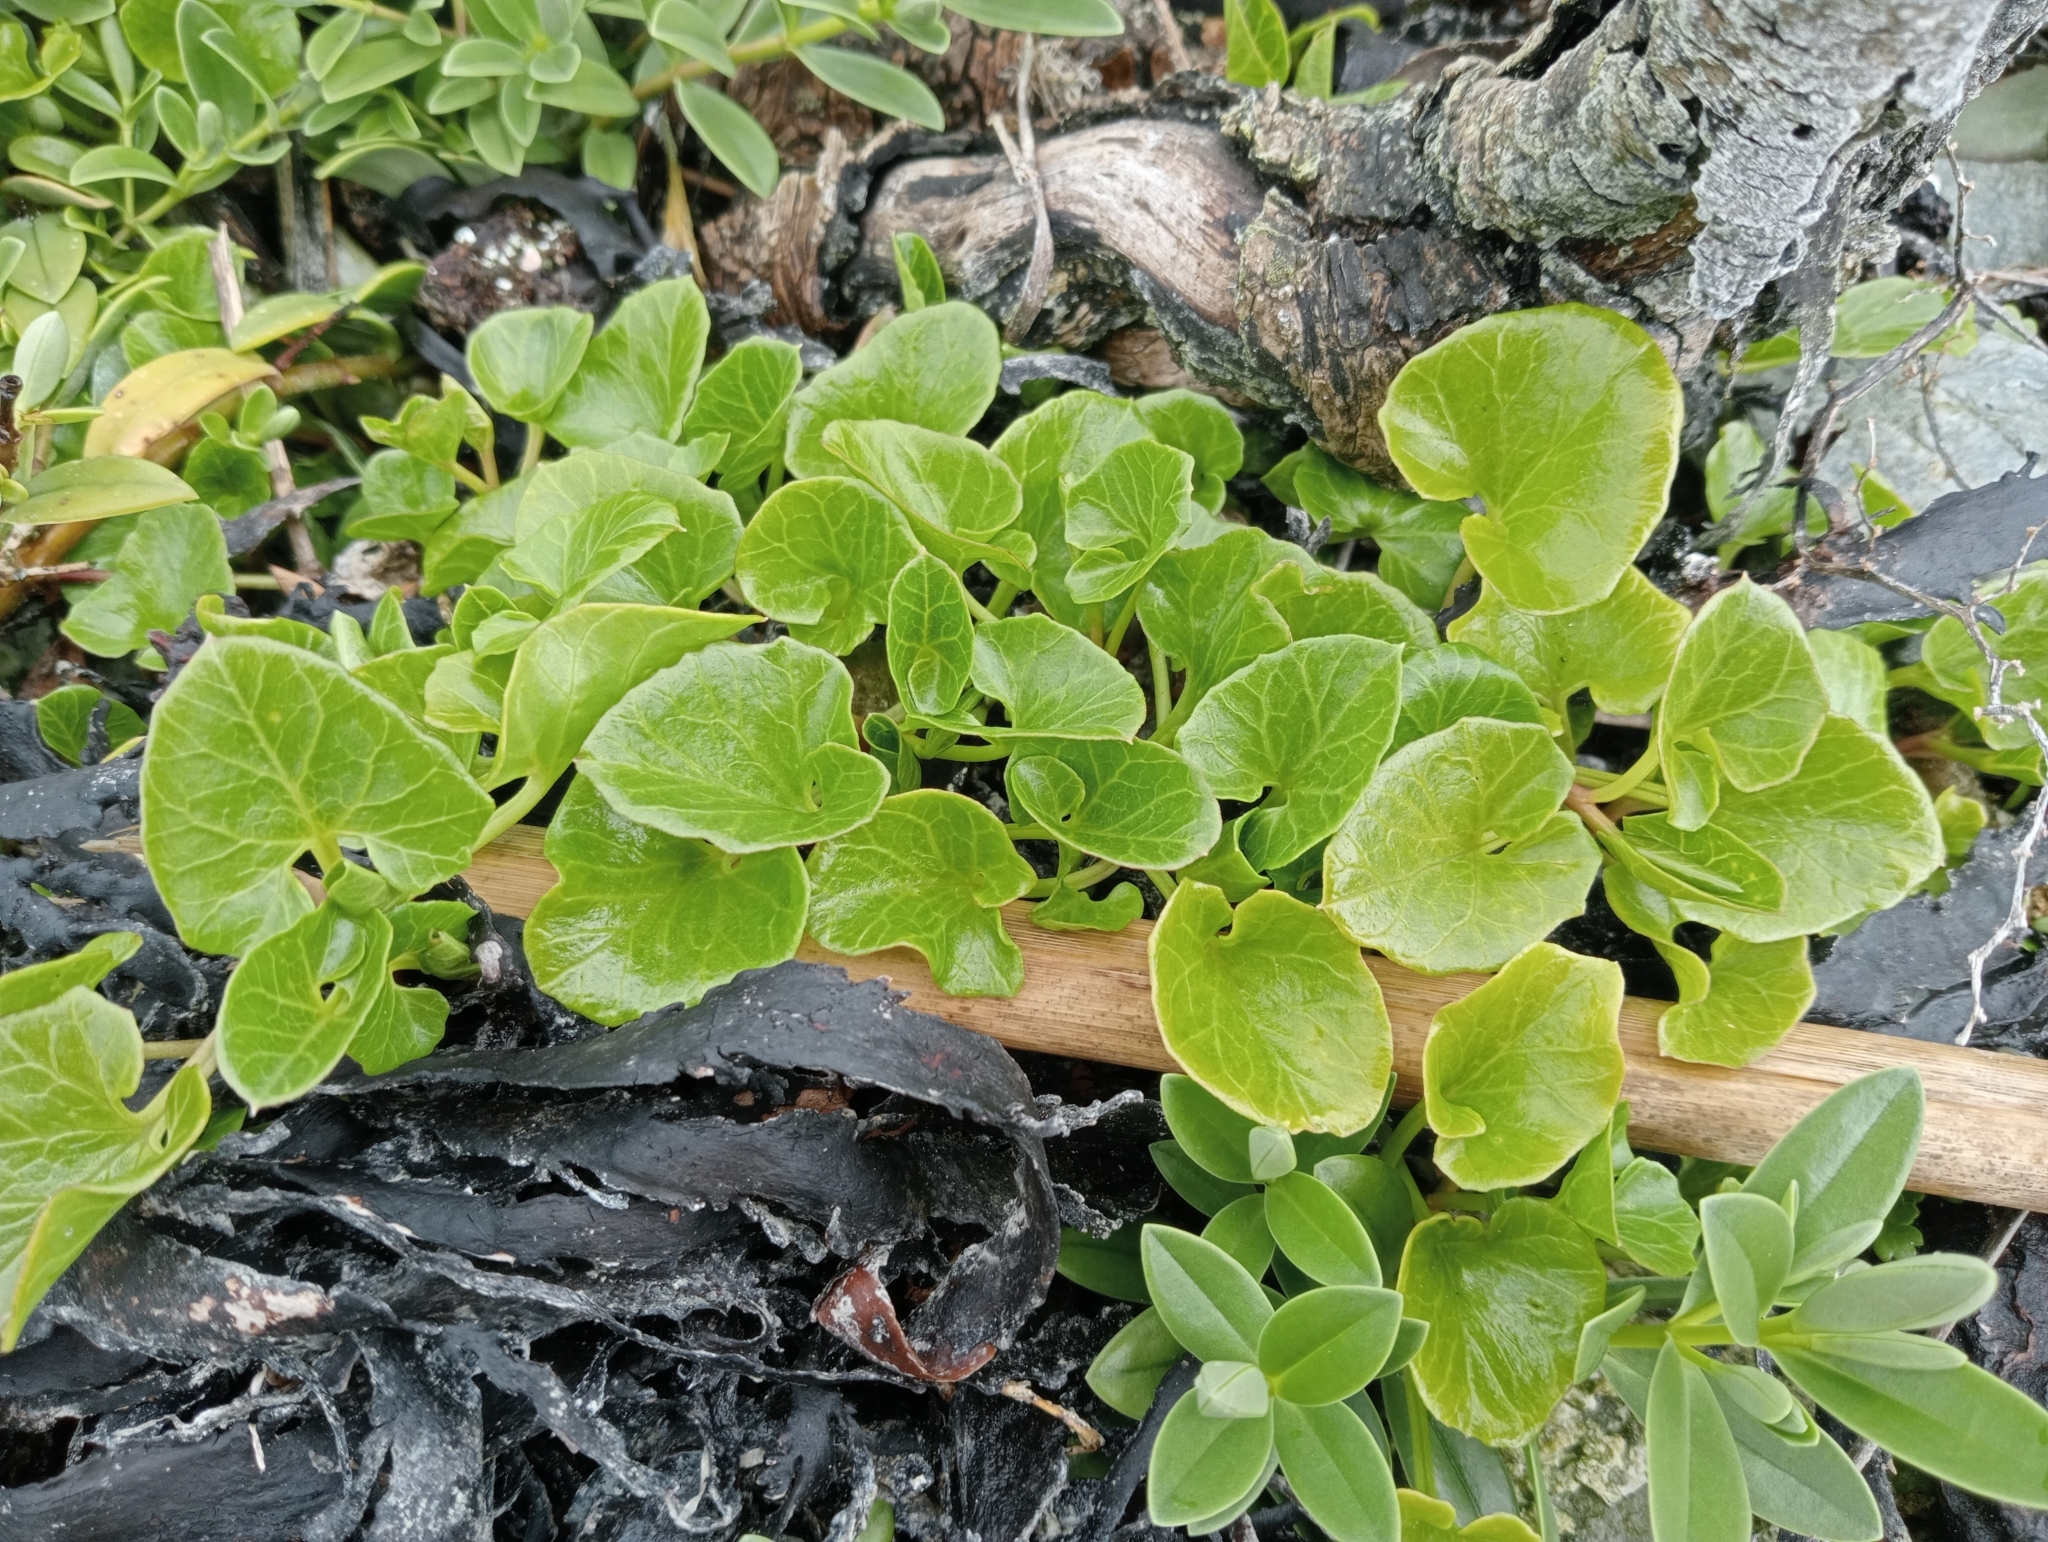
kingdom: Plantae
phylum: Tracheophyta
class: Magnoliopsida
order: Solanales
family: Convolvulaceae
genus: Calystegia
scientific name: Calystegia soldanella
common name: Sea bindweed
